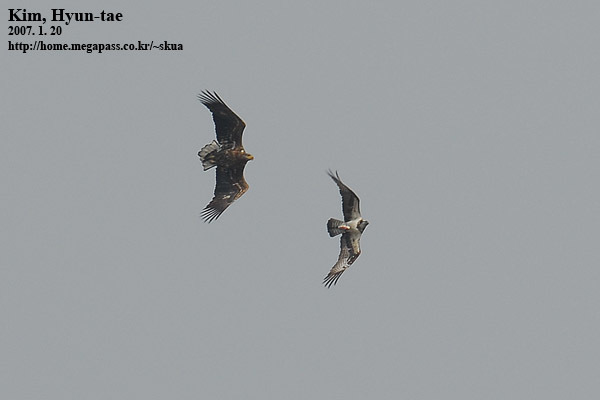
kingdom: Animalia
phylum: Chordata
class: Aves
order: Accipitriformes
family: Pandionidae
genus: Pandion
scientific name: Pandion haliaetus
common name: Osprey
